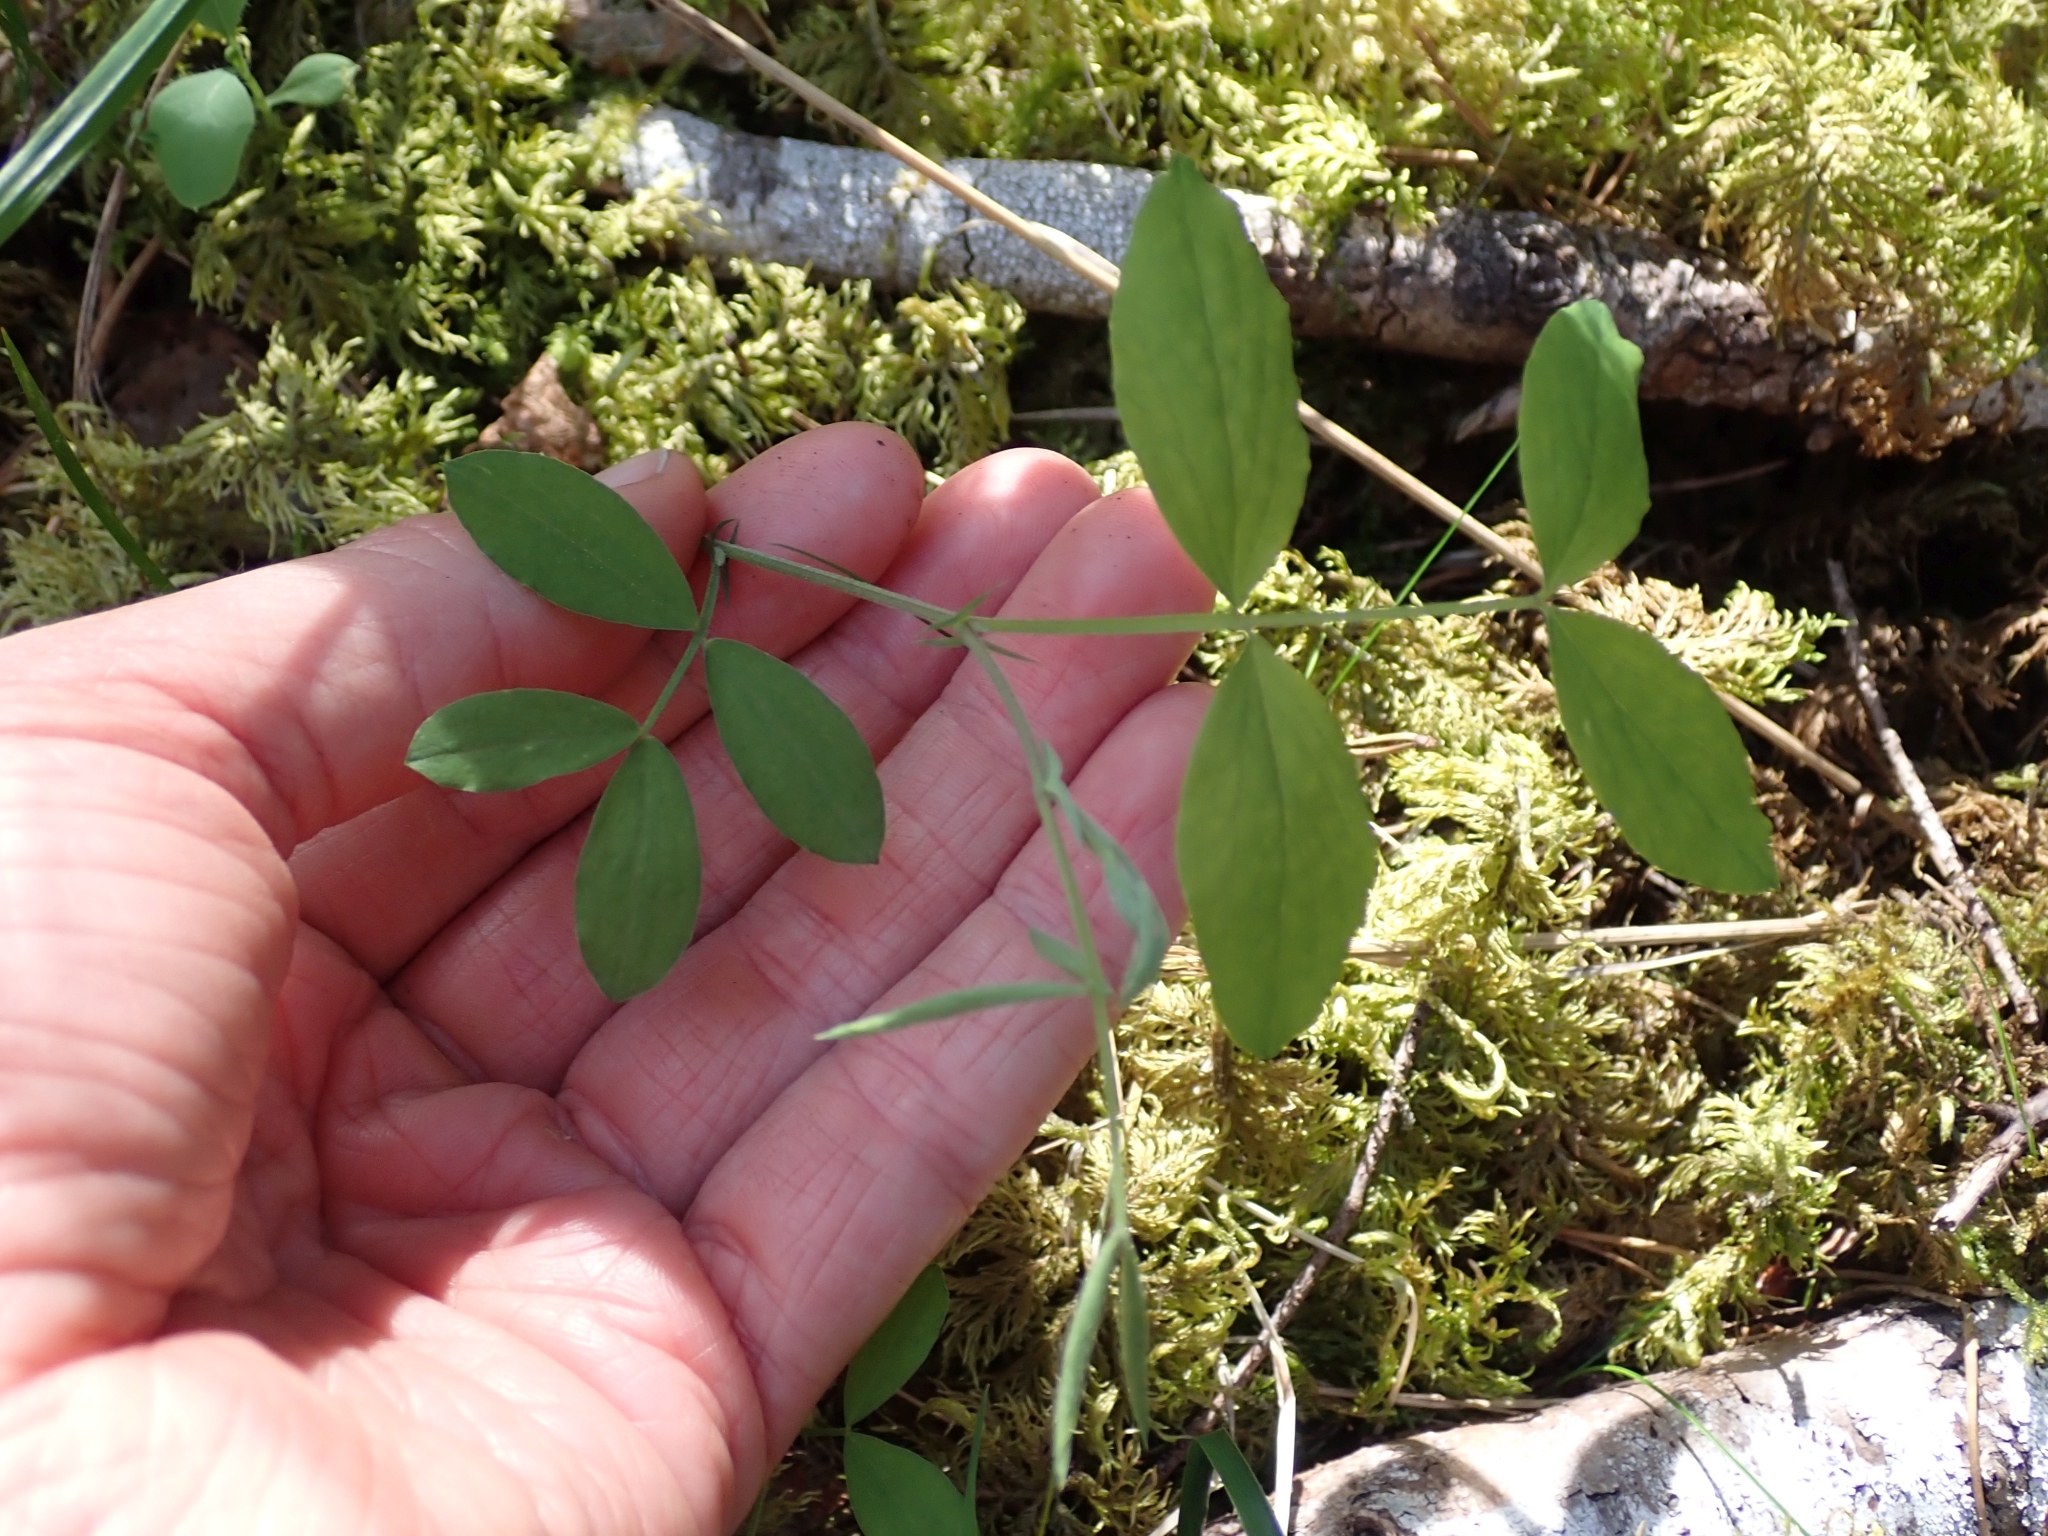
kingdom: Plantae
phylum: Tracheophyta
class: Magnoliopsida
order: Fabales
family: Fabaceae
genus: Lathyrus
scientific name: Lathyrus nevadensis
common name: Sierra nevada peavine
